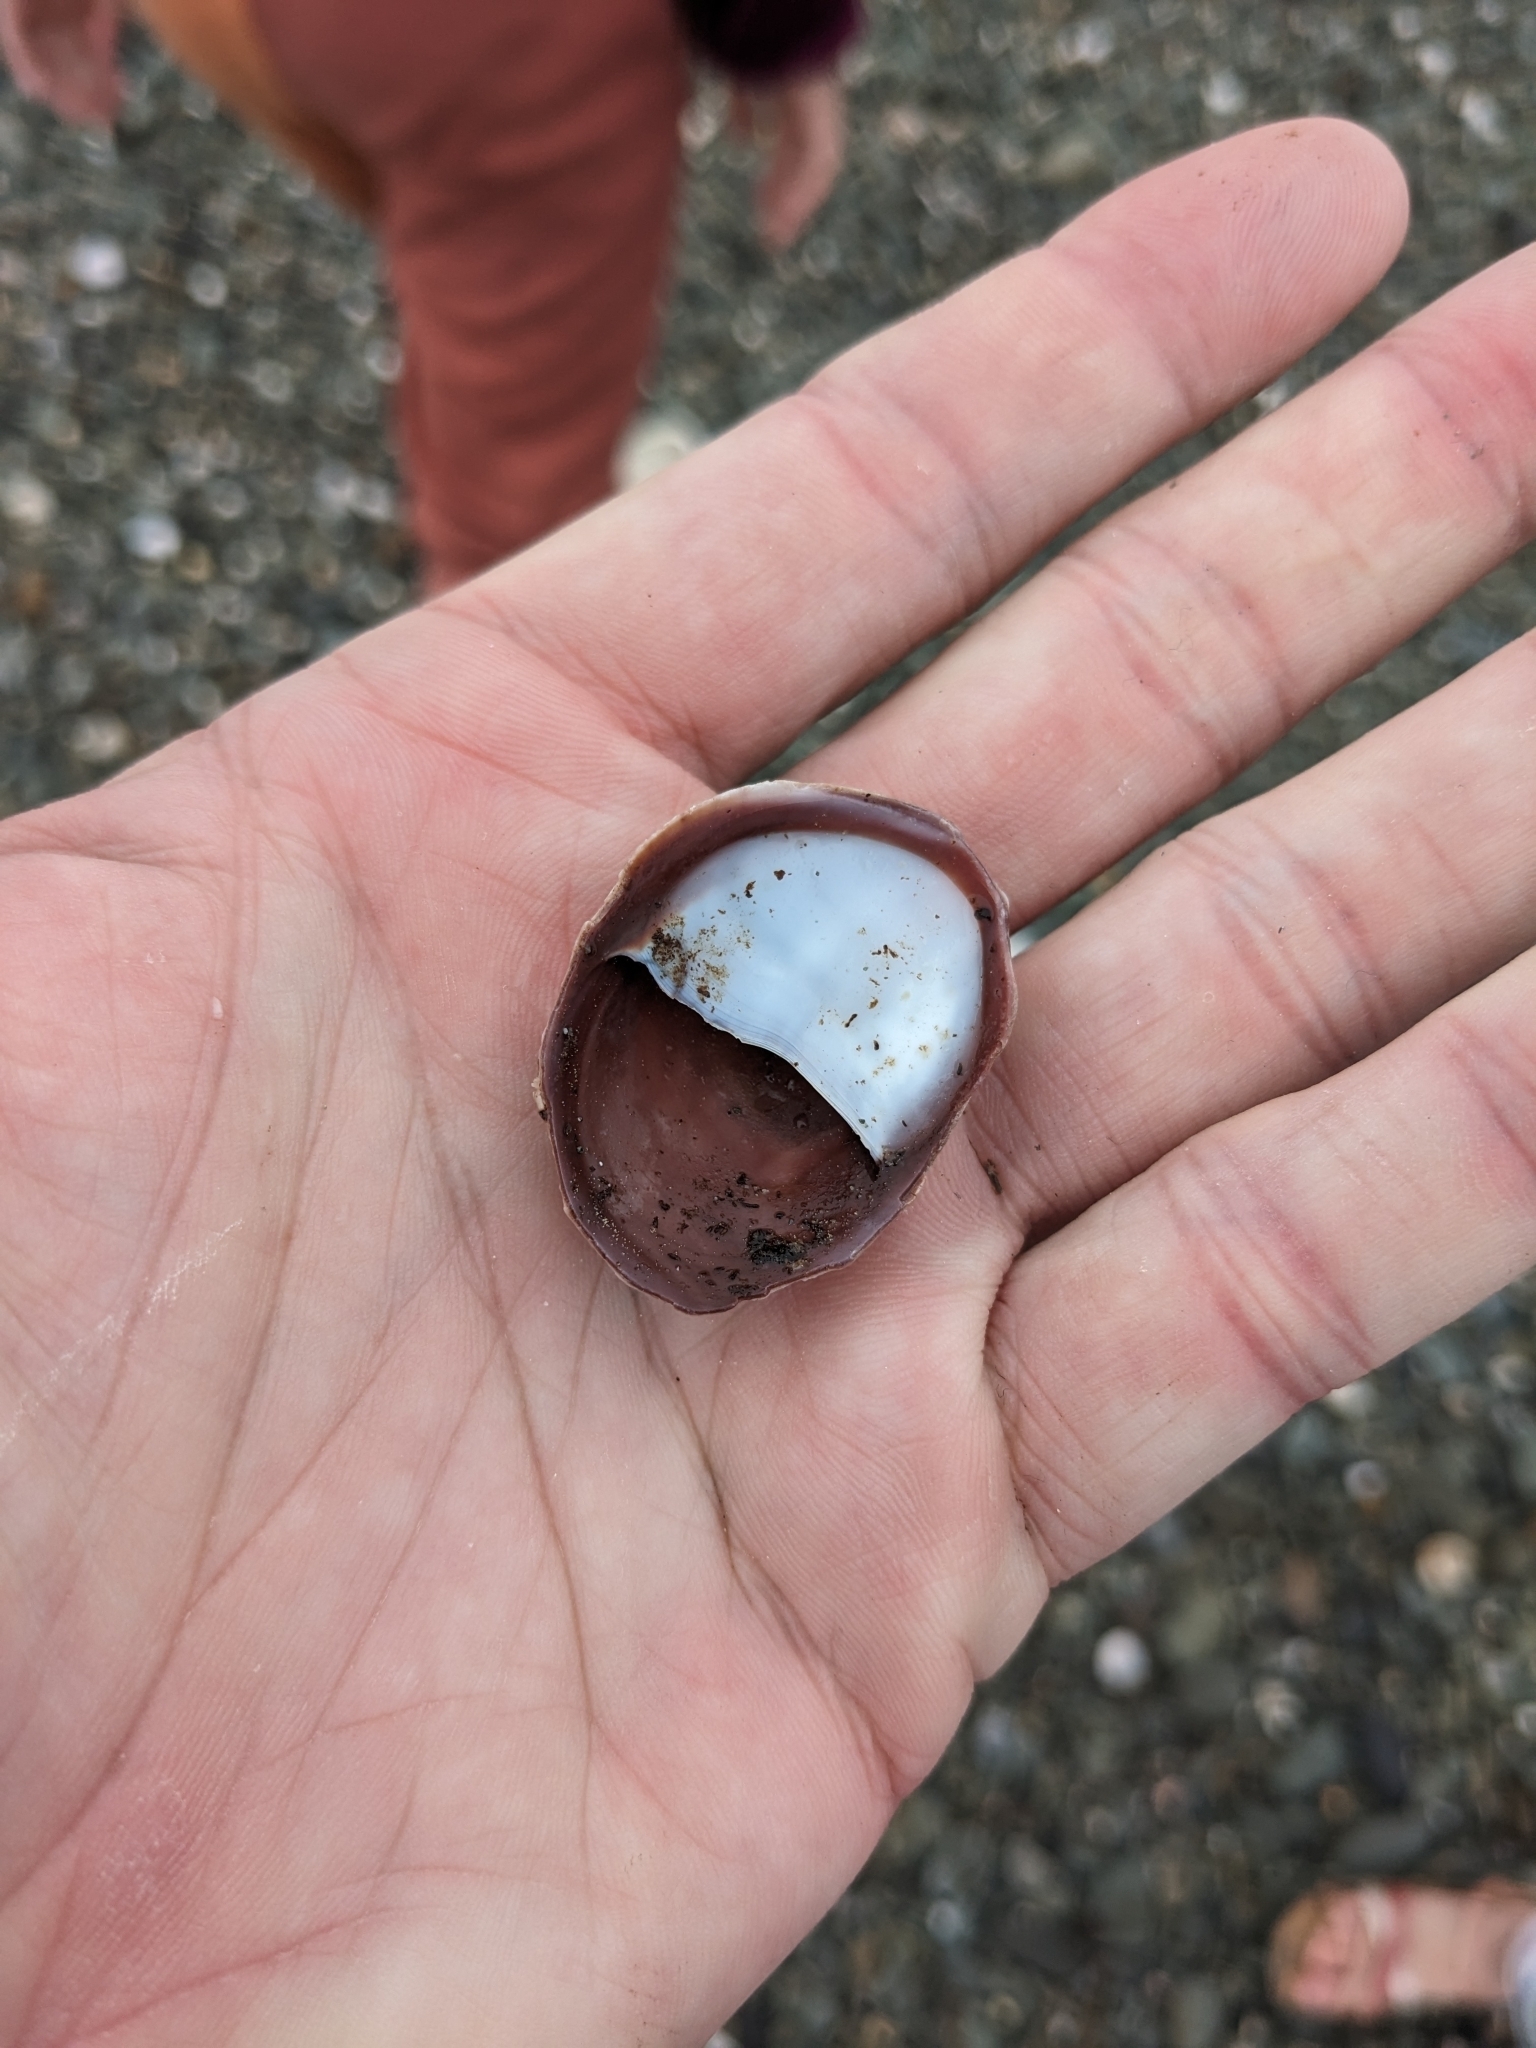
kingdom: Animalia
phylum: Mollusca
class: Gastropoda
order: Littorinimorpha
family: Calyptraeidae
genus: Crepidula
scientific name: Crepidula fornicata
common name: Slipper limpet
